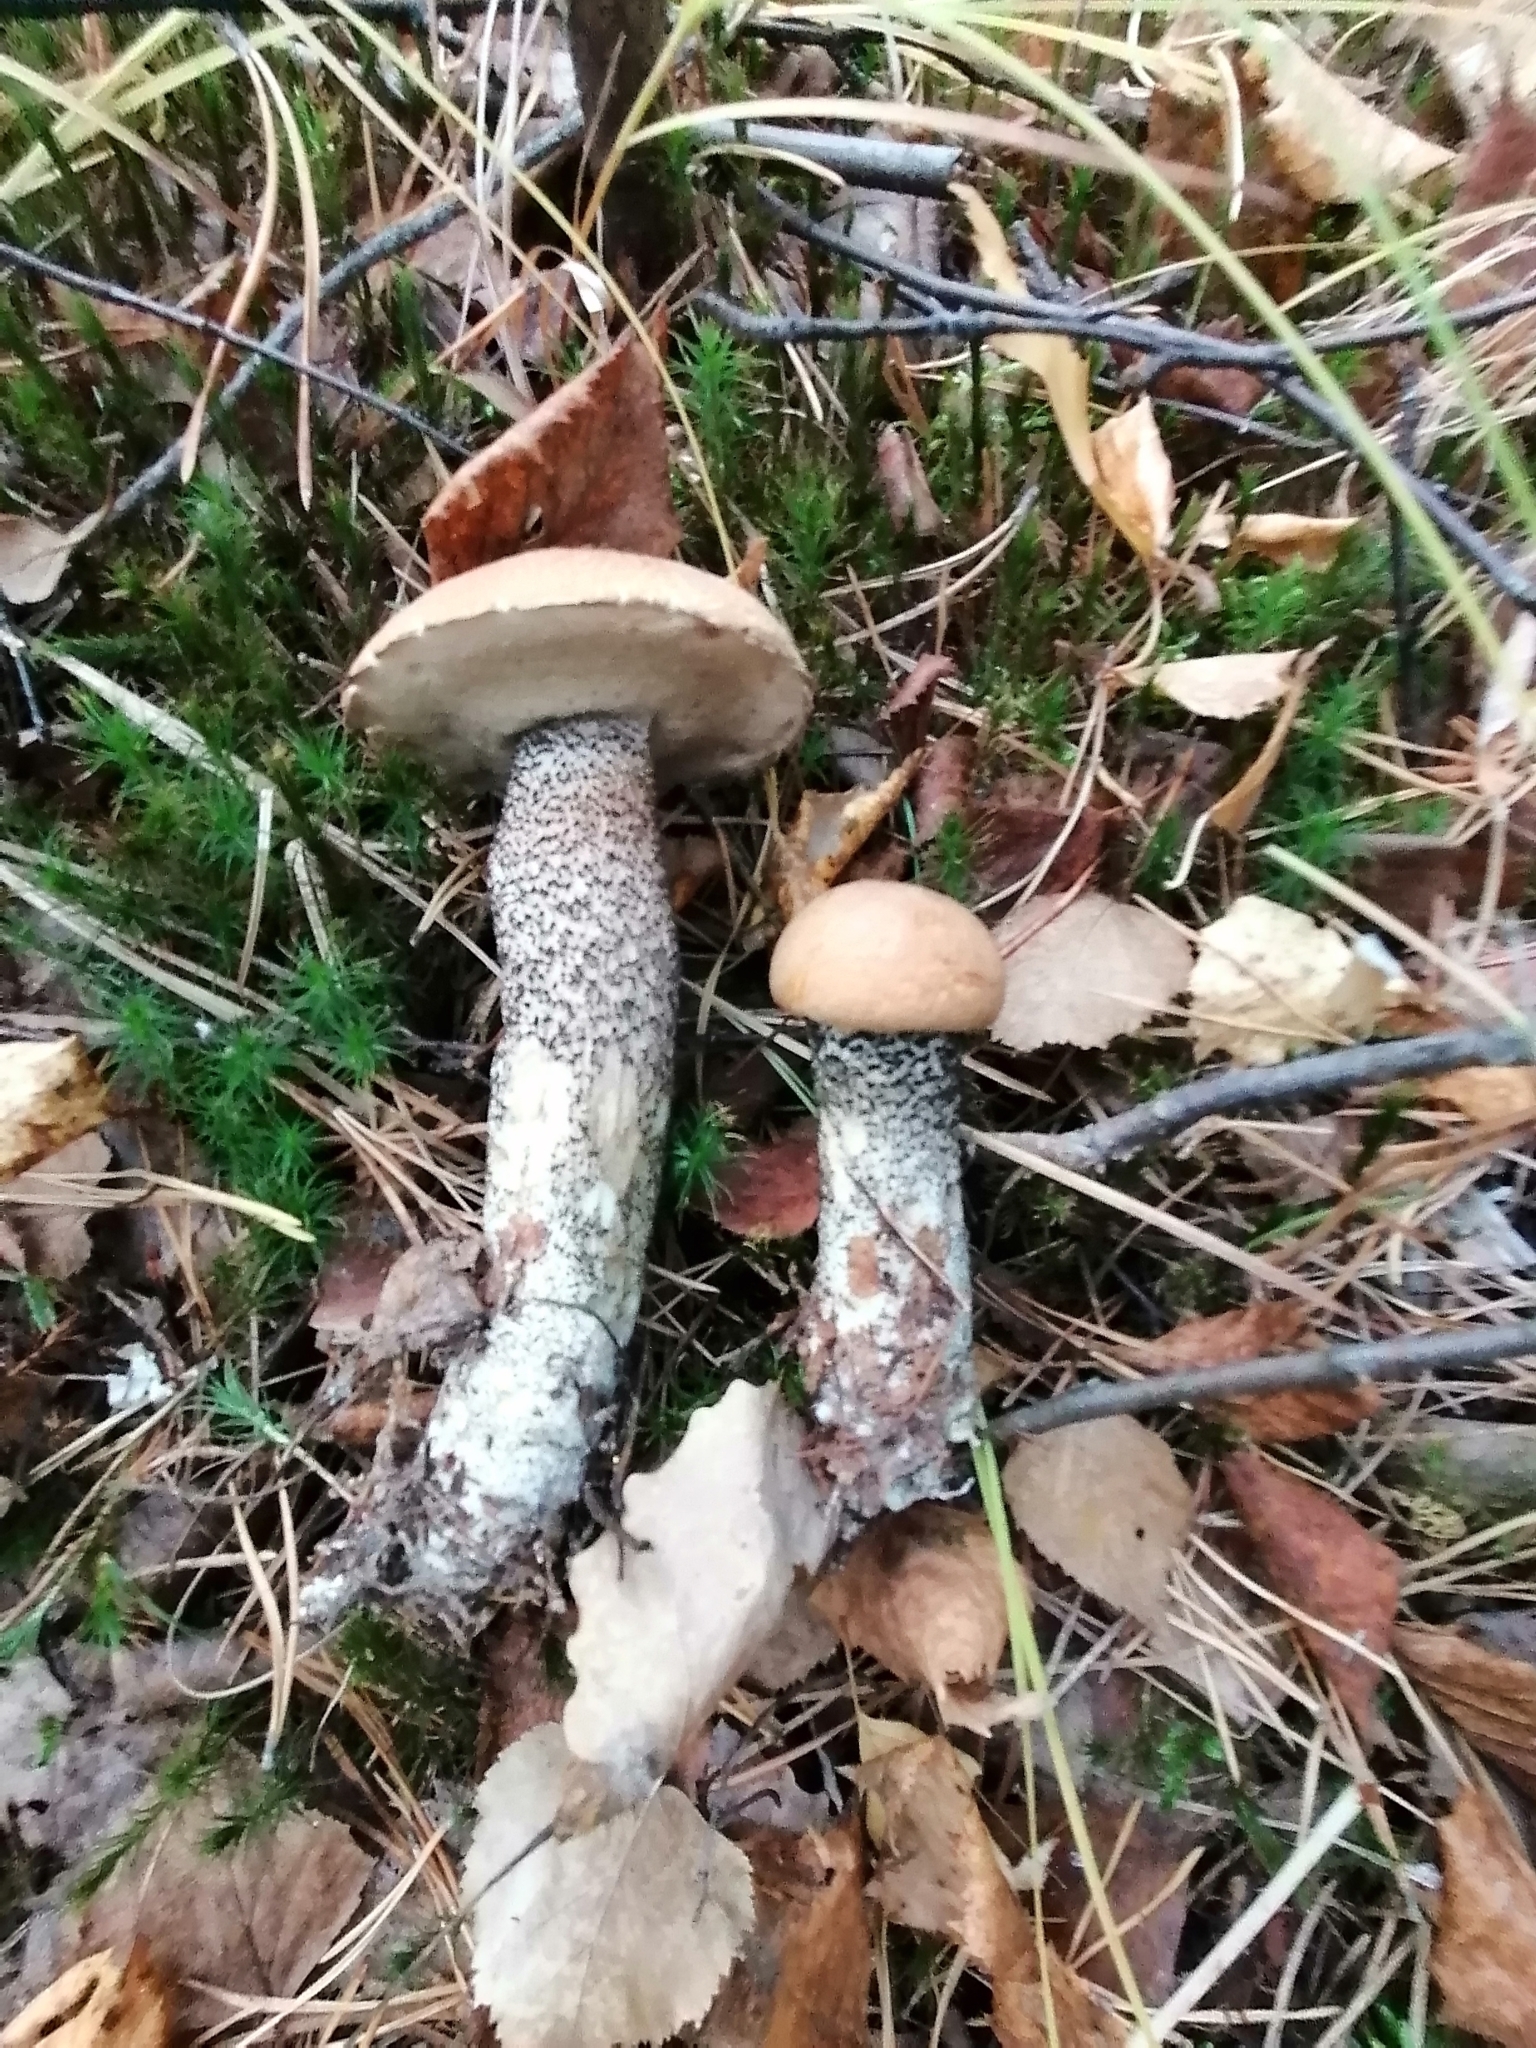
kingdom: Fungi
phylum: Basidiomycota
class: Agaricomycetes
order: Boletales
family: Boletaceae
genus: Leccinum
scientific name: Leccinum versipelle
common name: Orange birch bolete
